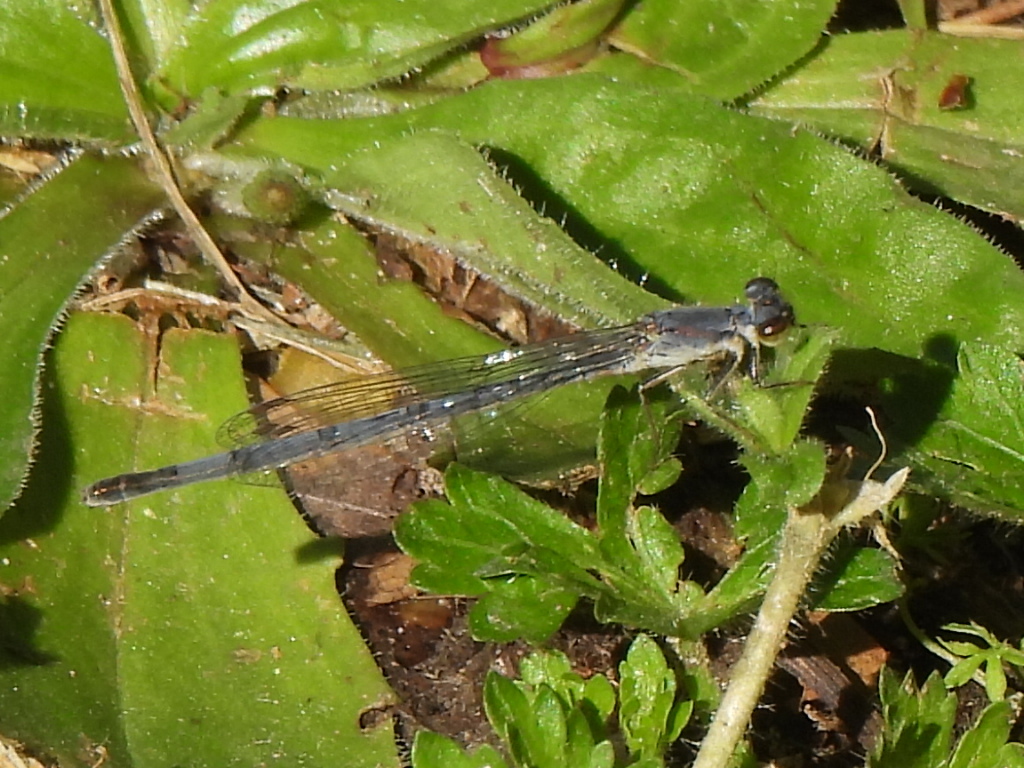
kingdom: Animalia
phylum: Arthropoda
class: Insecta
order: Odonata
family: Coenagrionidae
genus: Ischnura
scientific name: Ischnura posita
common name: Fragile forktail
